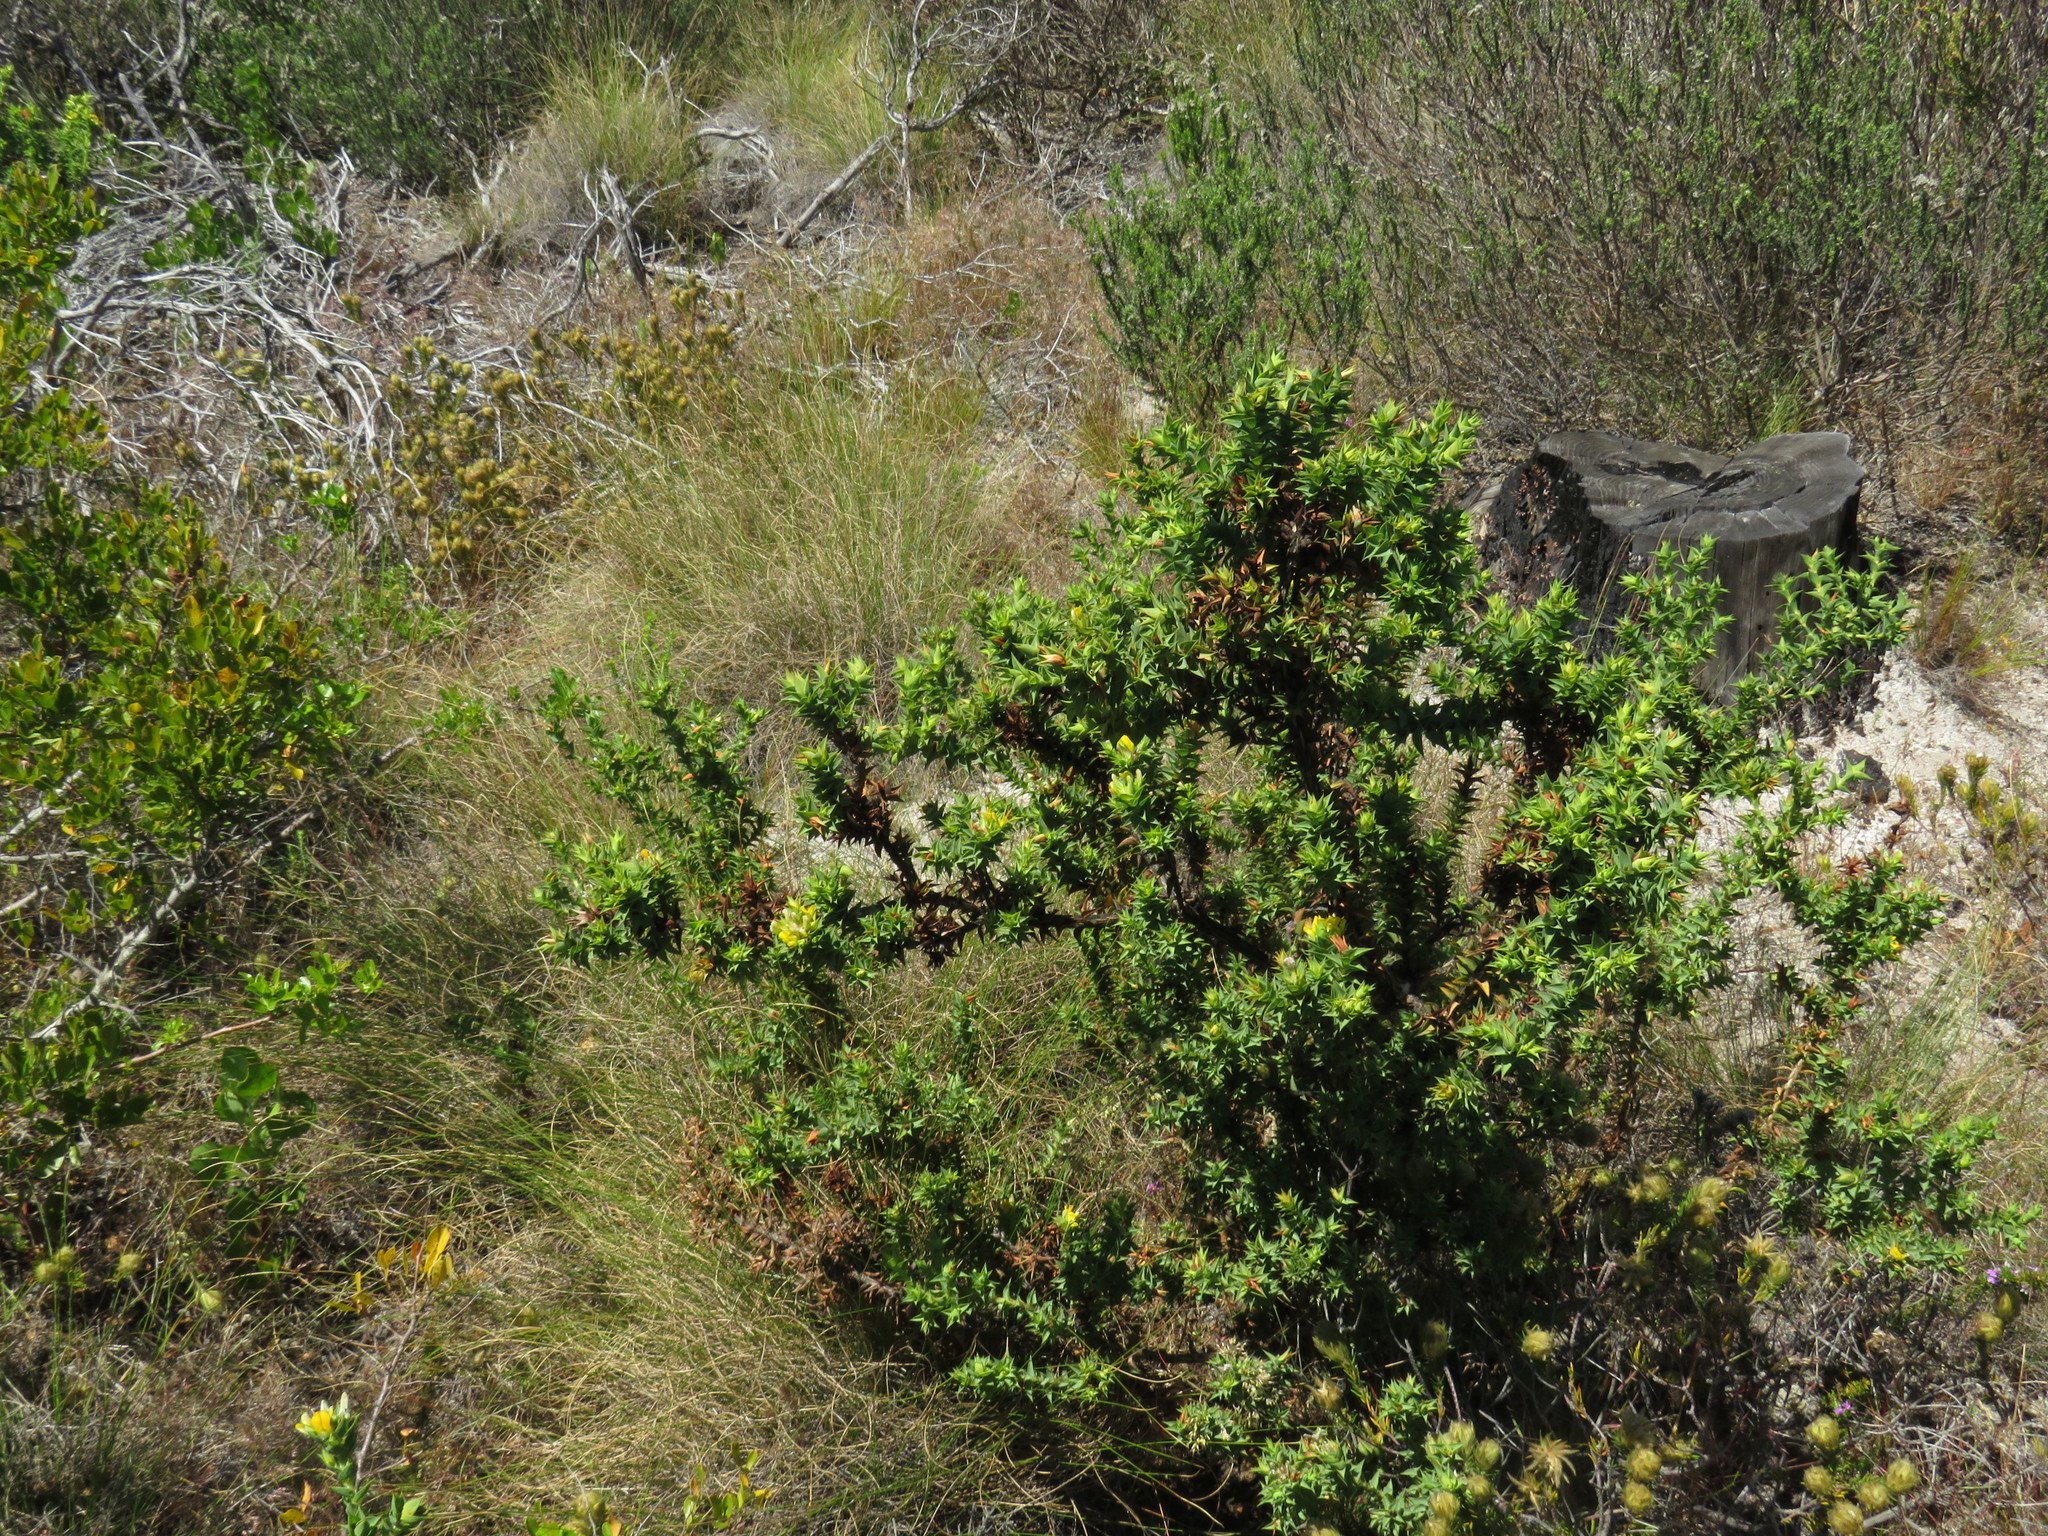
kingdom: Plantae
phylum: Tracheophyta
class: Magnoliopsida
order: Fabales
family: Fabaceae
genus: Aspalathus
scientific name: Aspalathus cordata
